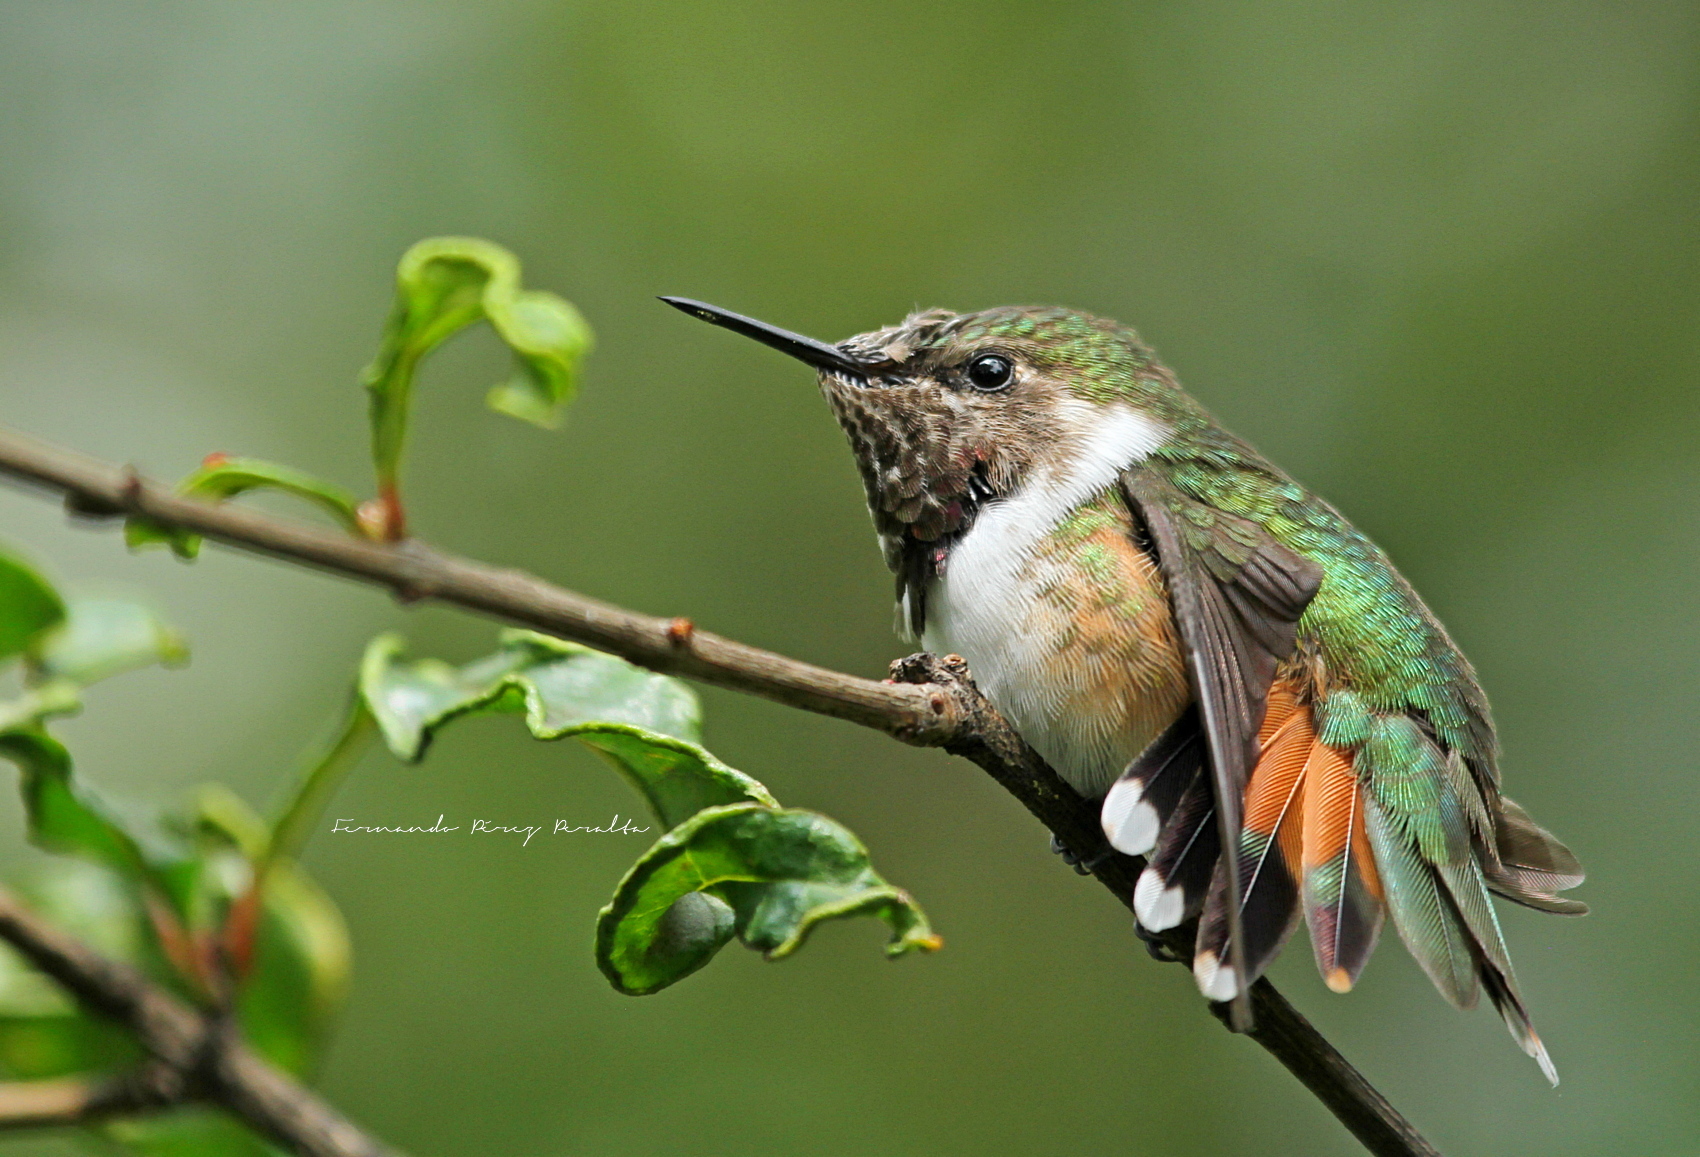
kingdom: Animalia
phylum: Chordata
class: Aves
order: Apodiformes
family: Trochilidae
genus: Selasphorus
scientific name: Selasphorus heloisa
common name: Bumblebee hummingbird
